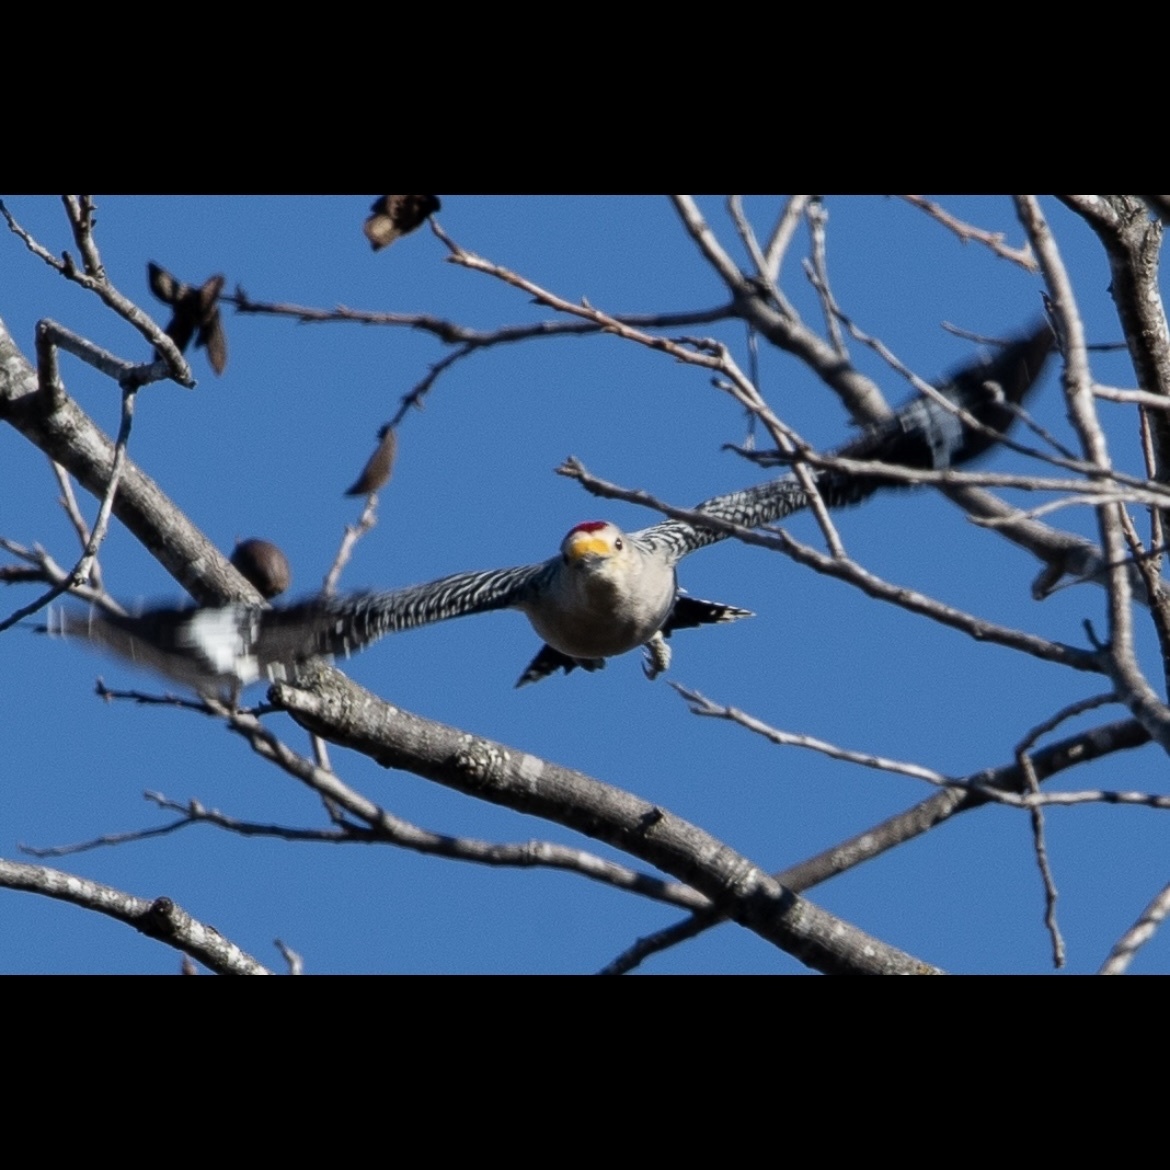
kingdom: Animalia
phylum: Chordata
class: Aves
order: Piciformes
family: Picidae
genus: Melanerpes
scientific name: Melanerpes aurifrons
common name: Golden-fronted woodpecker
